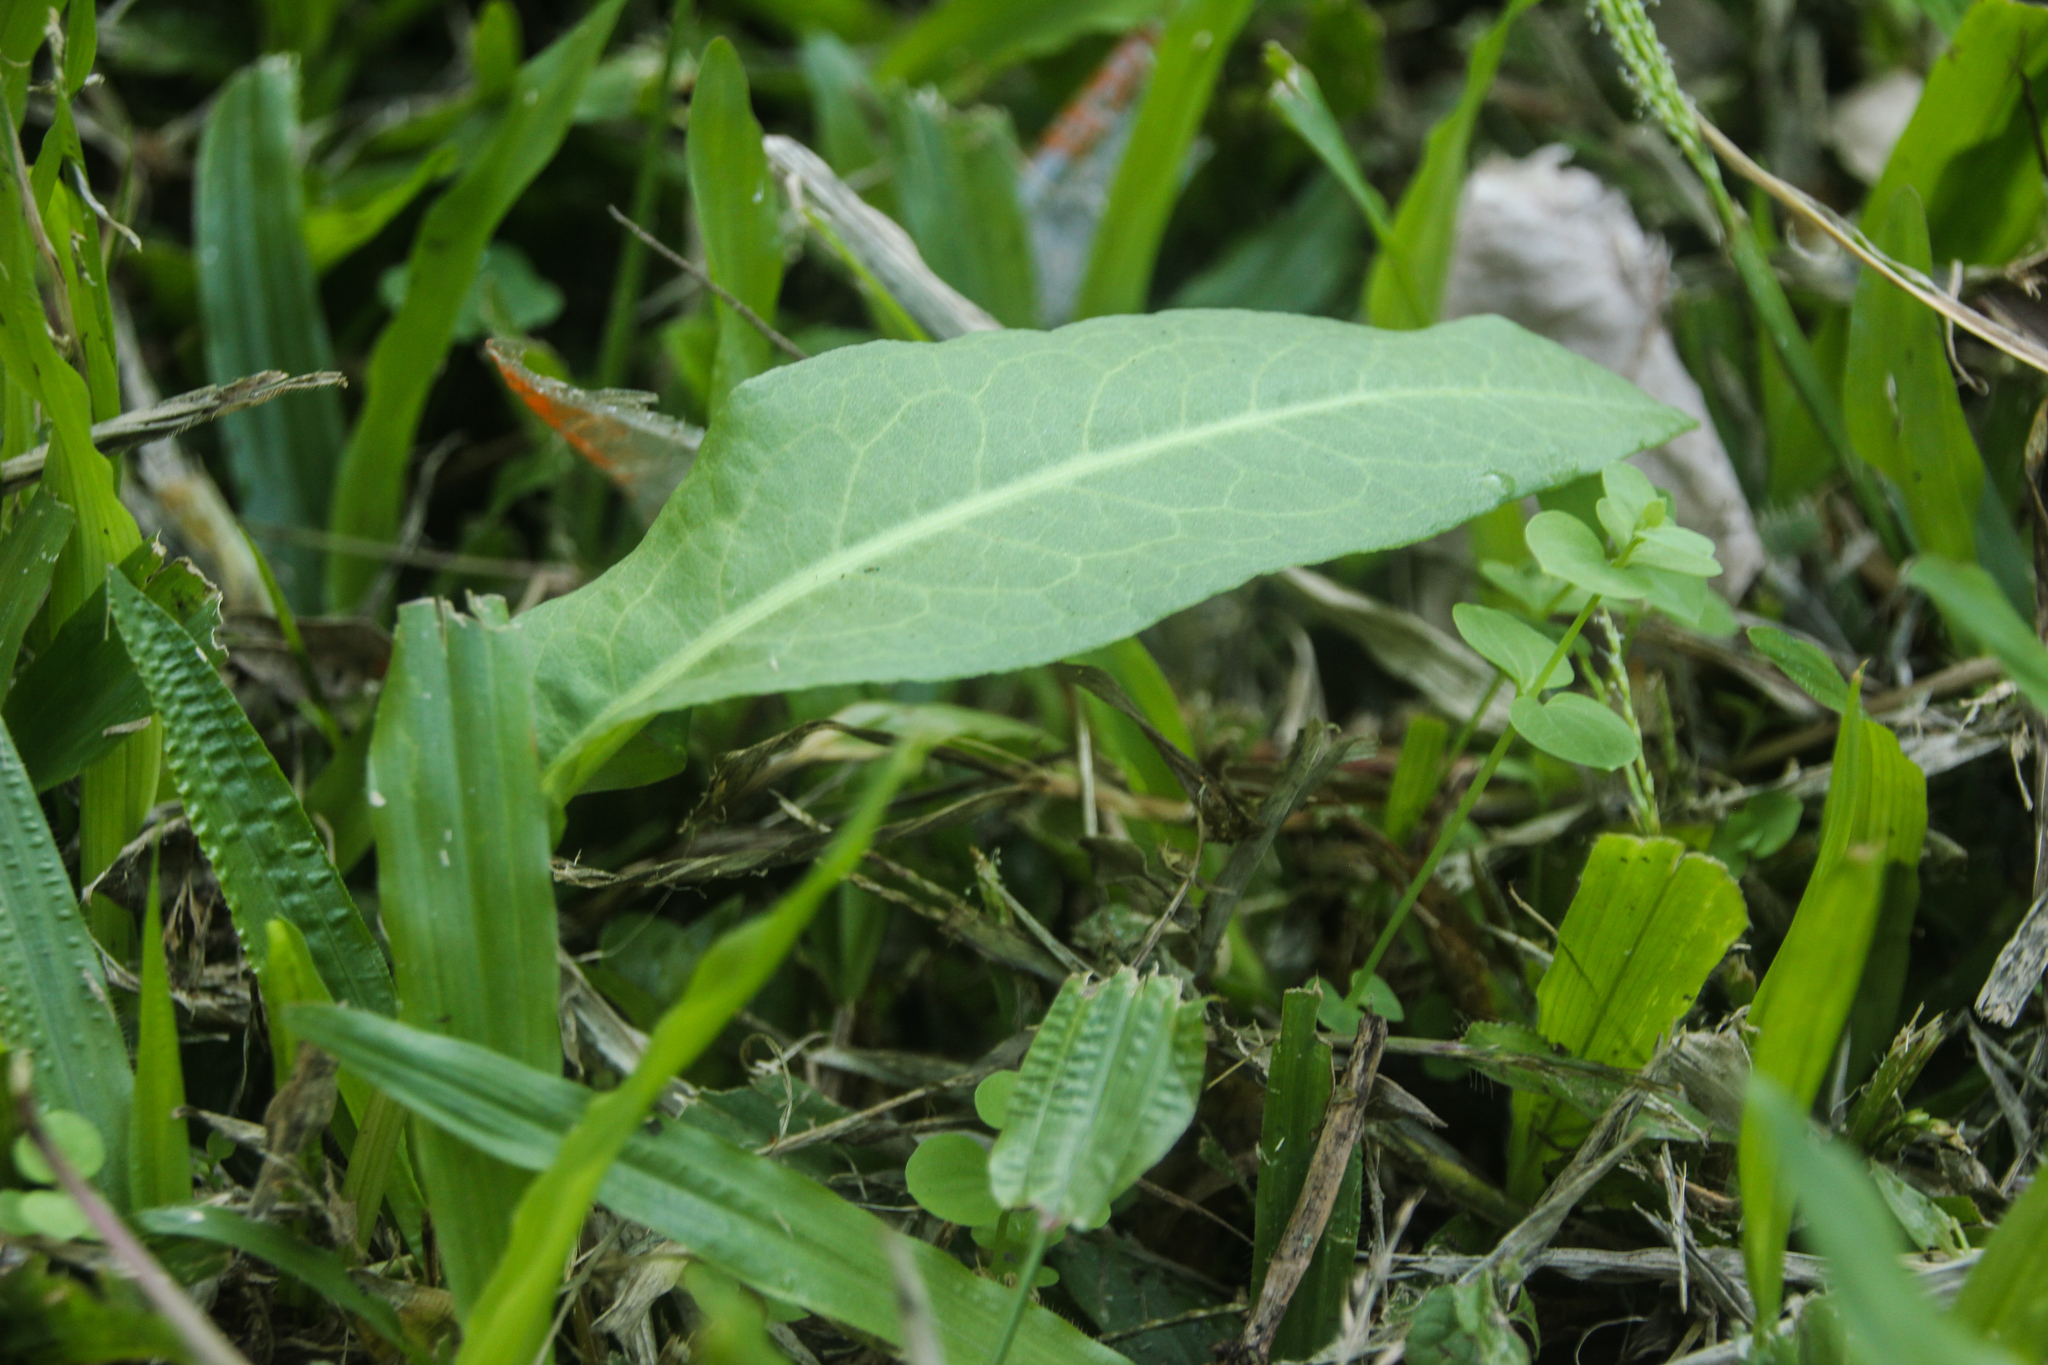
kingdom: Plantae
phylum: Tracheophyta
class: Magnoliopsida
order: Caryophyllales
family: Polygonaceae
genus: Rumex
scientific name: Rumex japonicus
